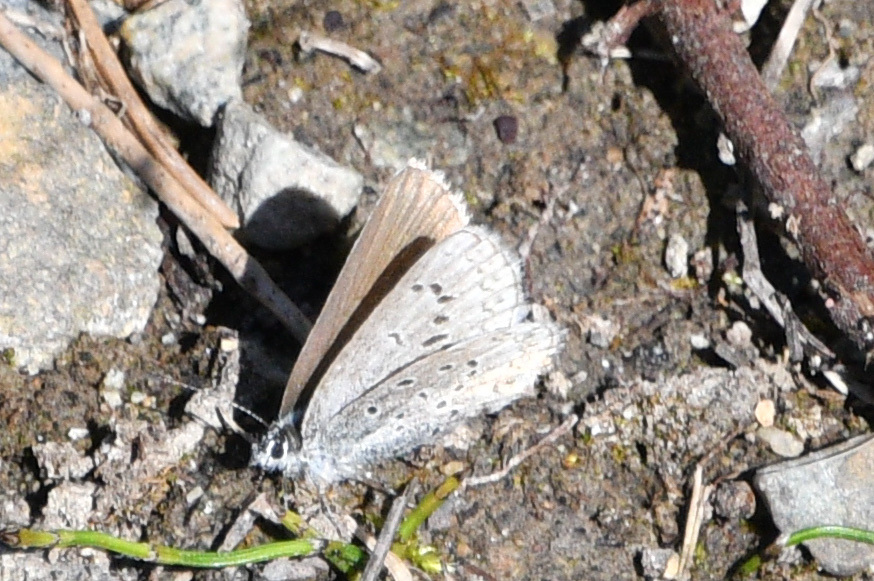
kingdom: Animalia
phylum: Arthropoda
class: Insecta
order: Lepidoptera
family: Lycaenidae
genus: Lycaeides
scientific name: Lycaeides idas
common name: Northern blue
